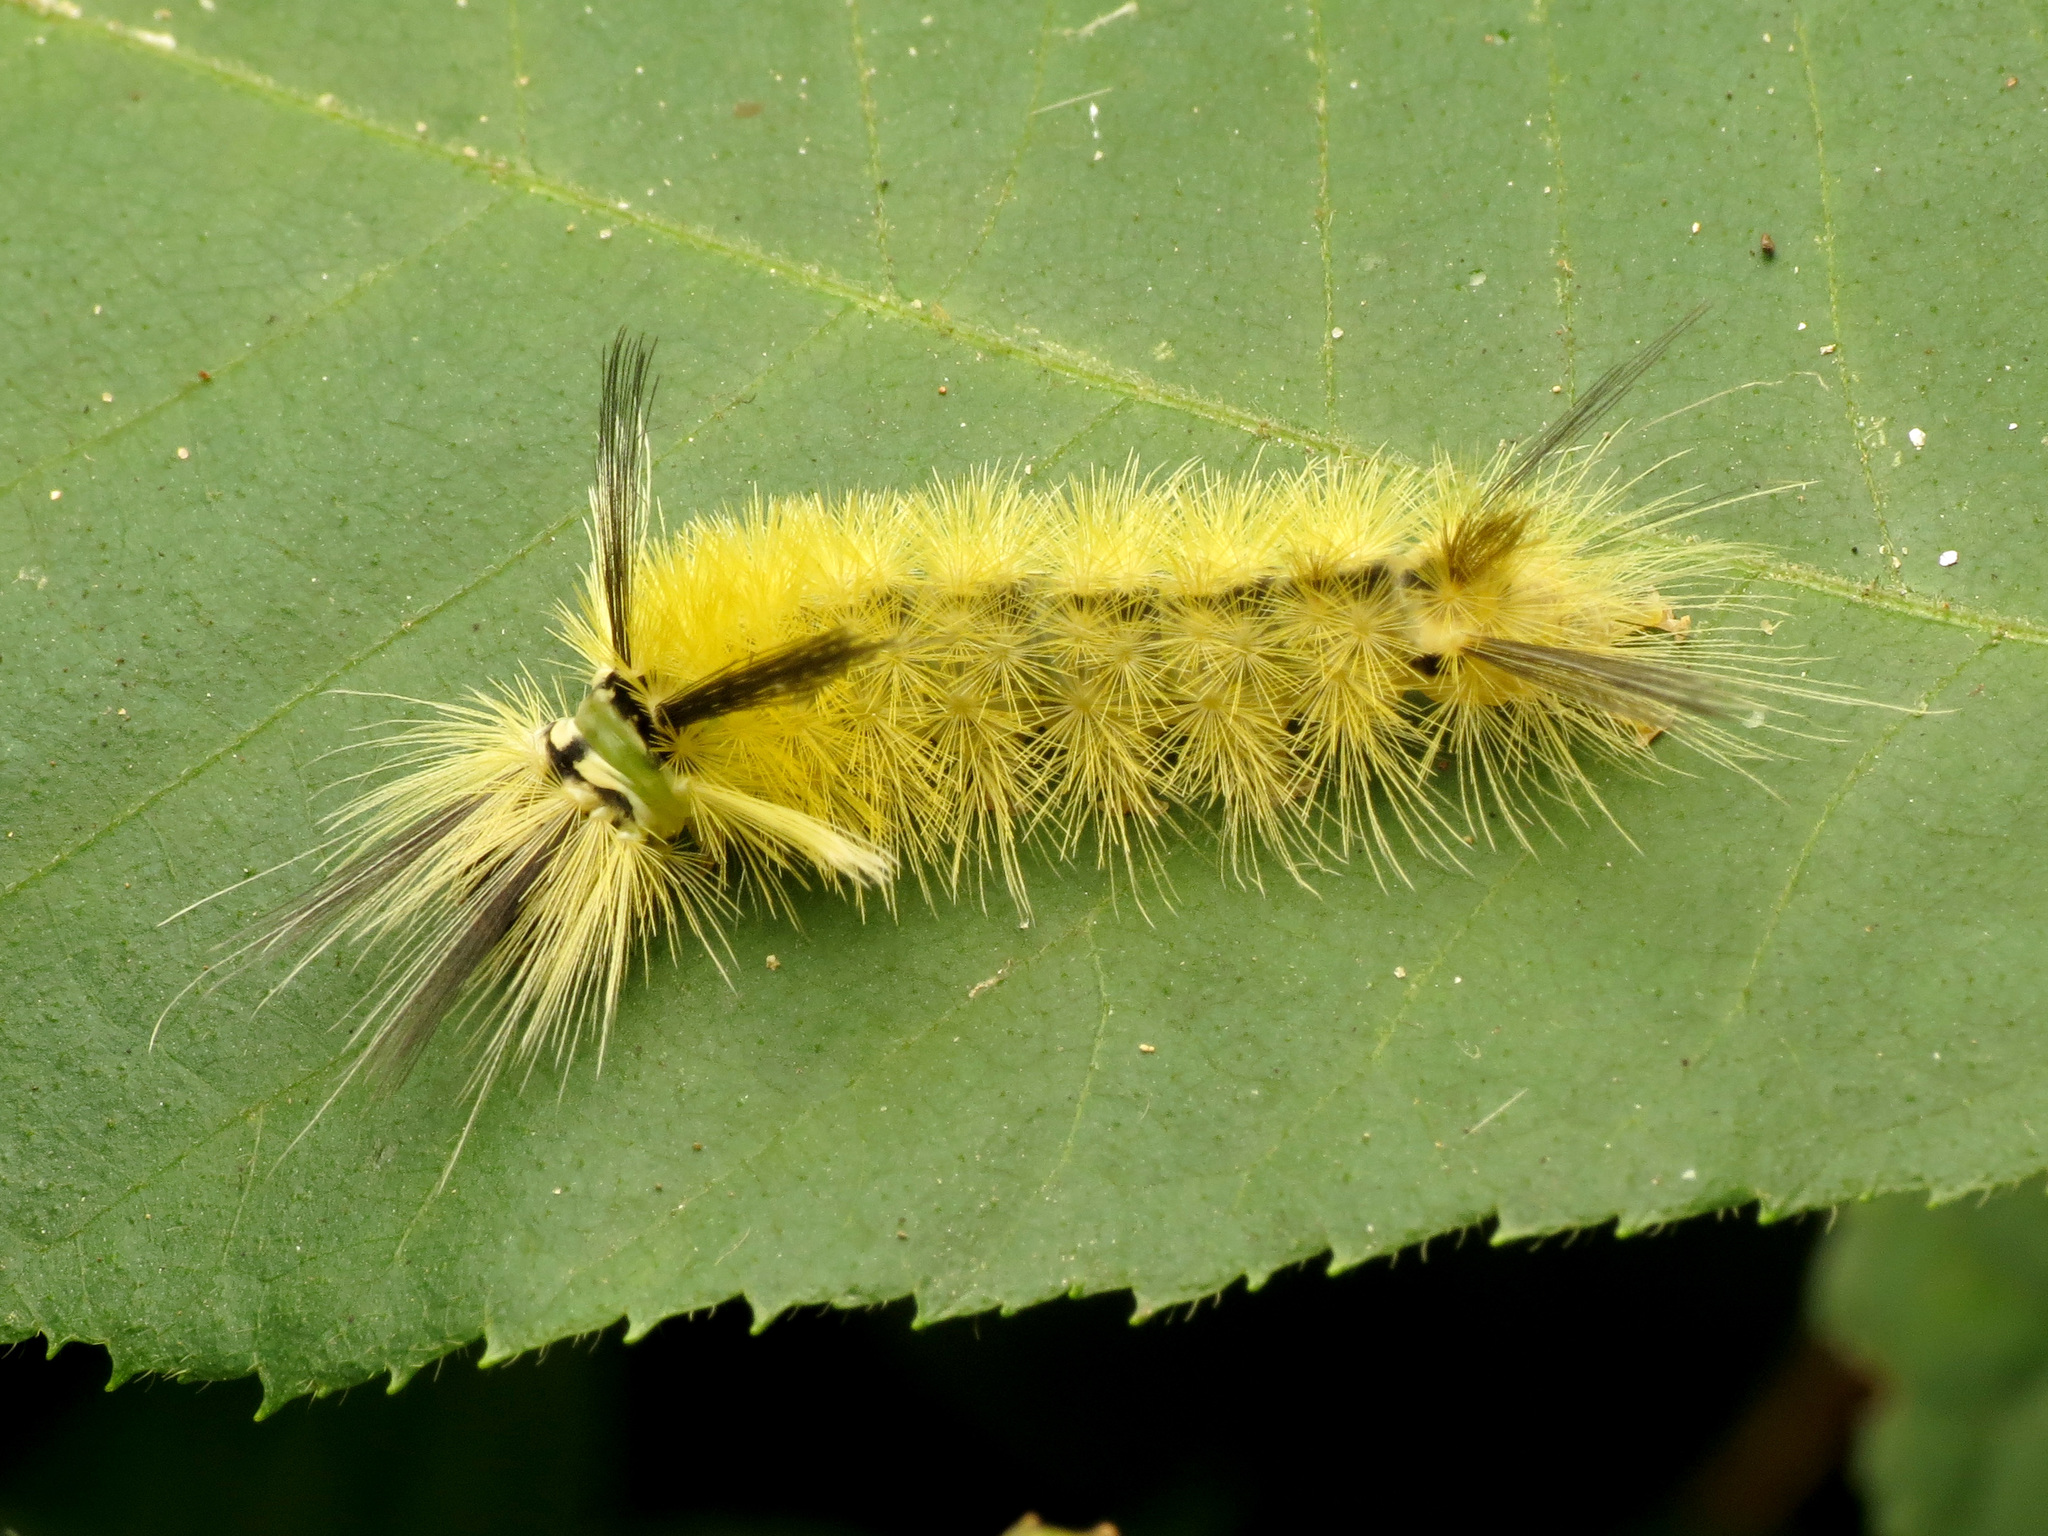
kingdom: Animalia
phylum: Arthropoda
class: Insecta
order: Lepidoptera
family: Erebidae
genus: Halysidota
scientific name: Halysidota tessellaris
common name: Banded tussock moth
